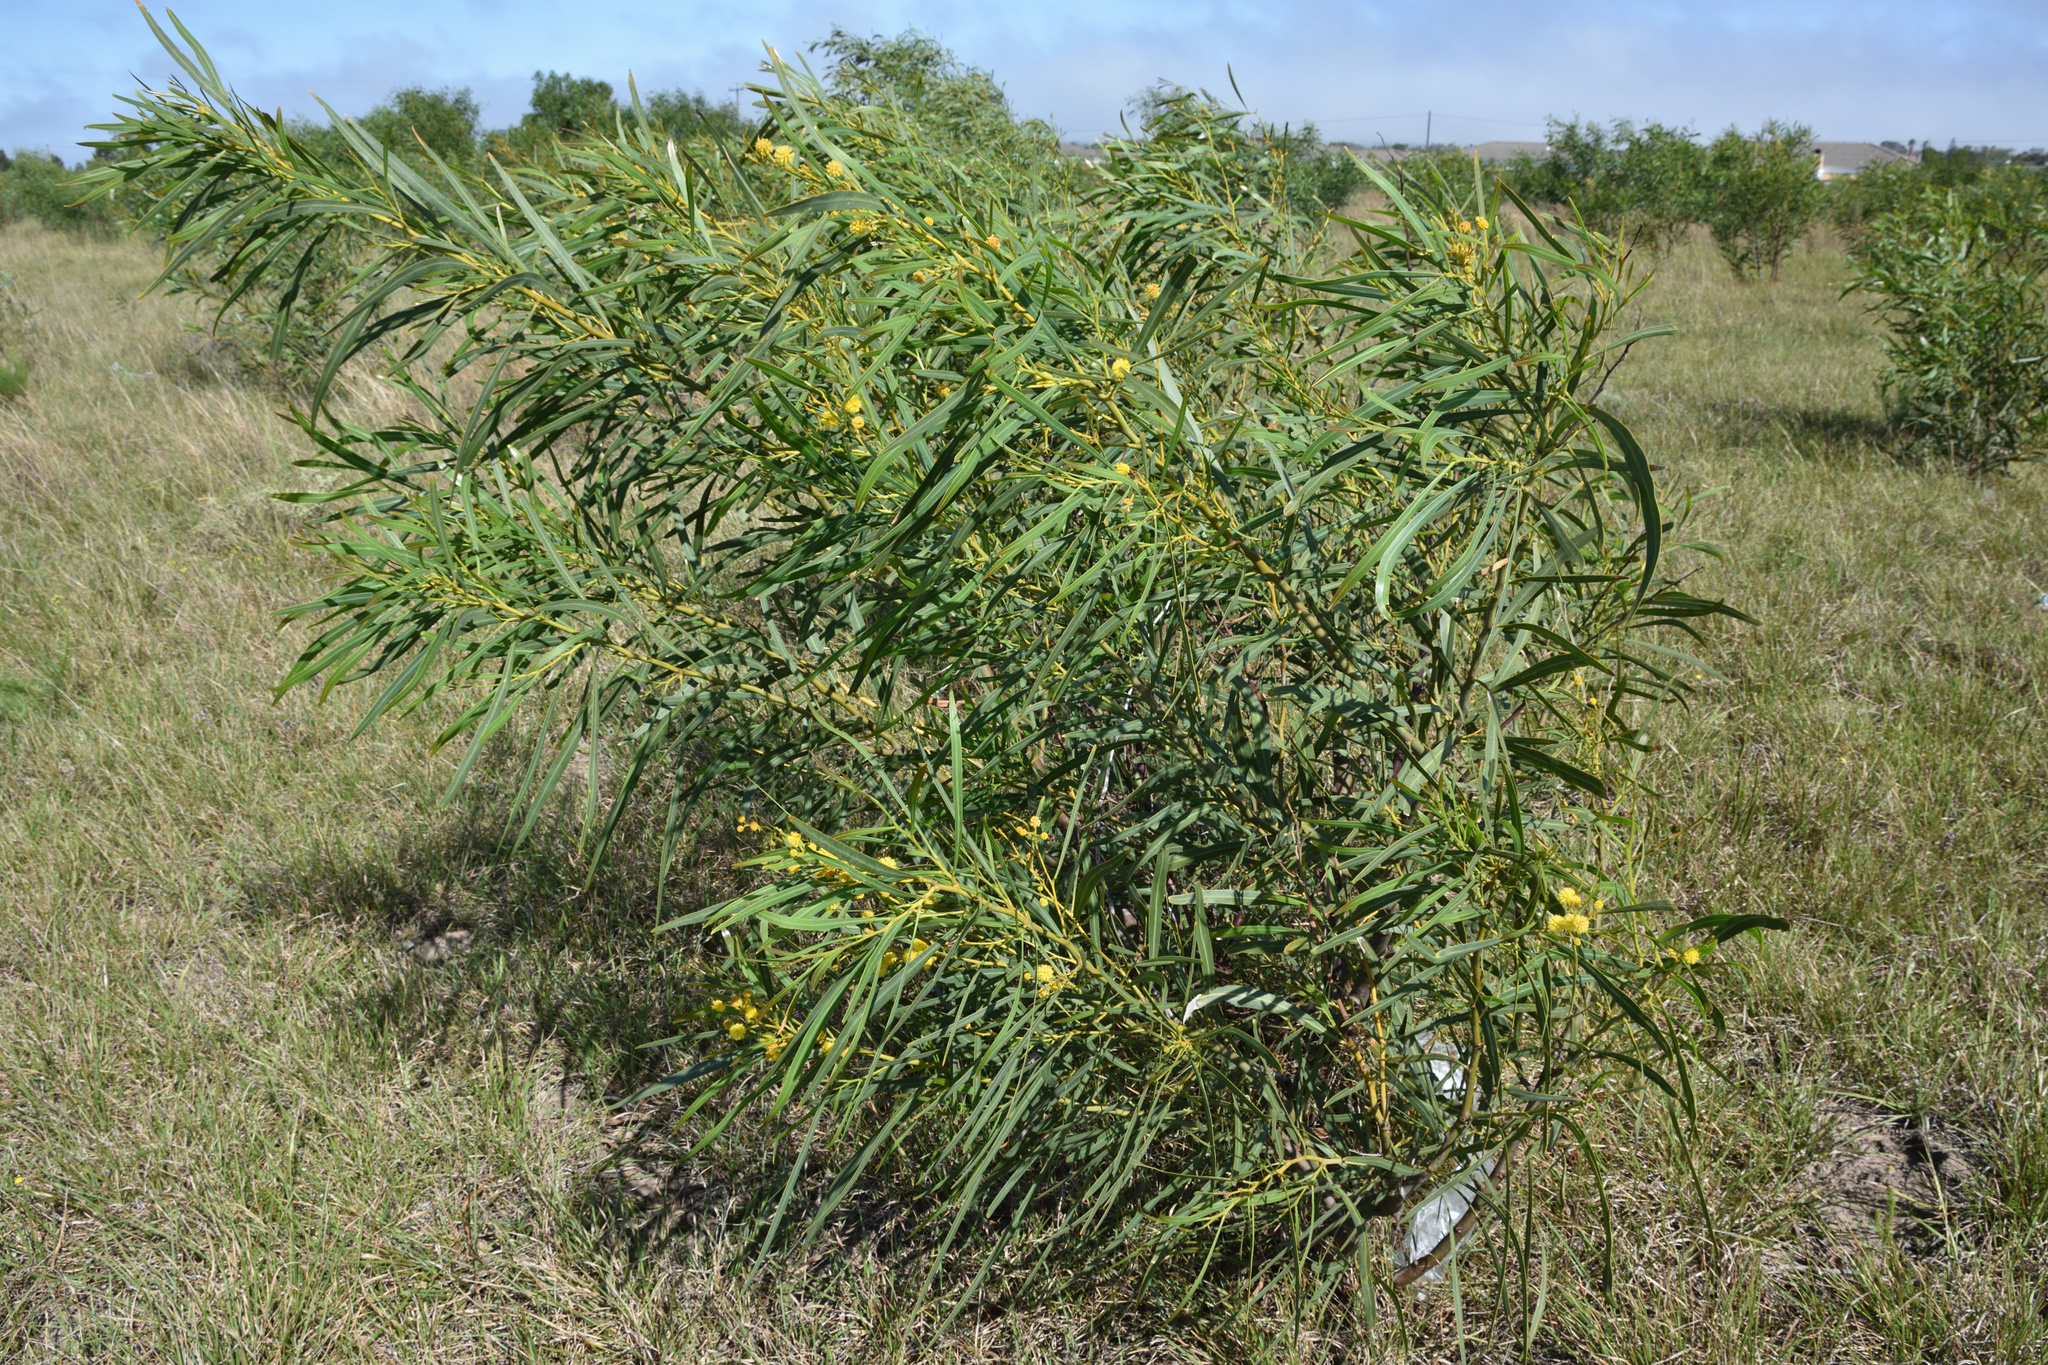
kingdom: Plantae
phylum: Tracheophyta
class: Magnoliopsida
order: Fabales
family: Fabaceae
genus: Acacia
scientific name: Acacia saligna
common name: Orange wattle
